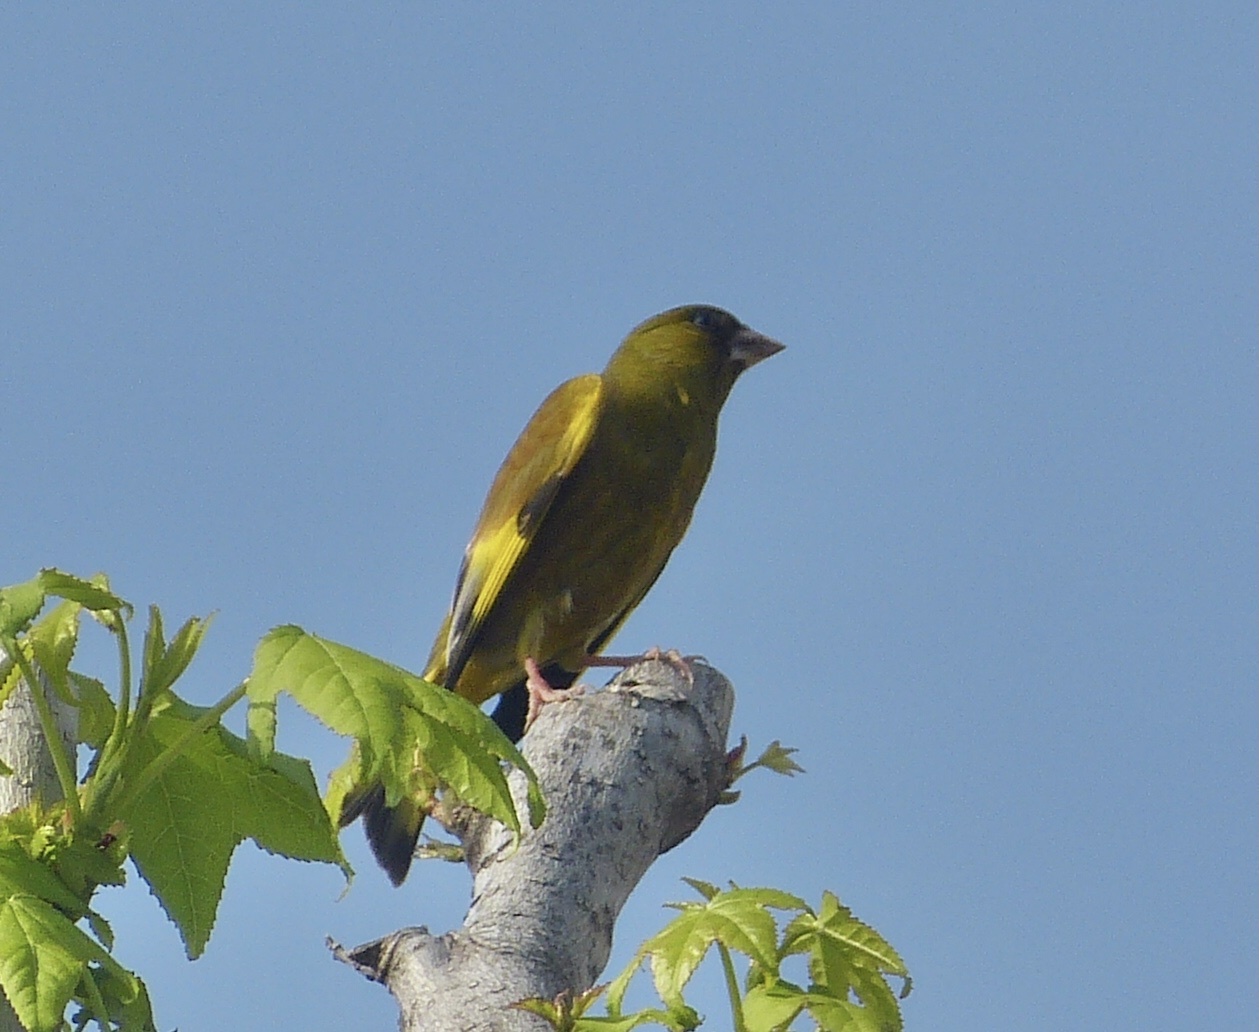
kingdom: Plantae
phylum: Tracheophyta
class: Liliopsida
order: Poales
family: Poaceae
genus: Chloris
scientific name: Chloris sinica
